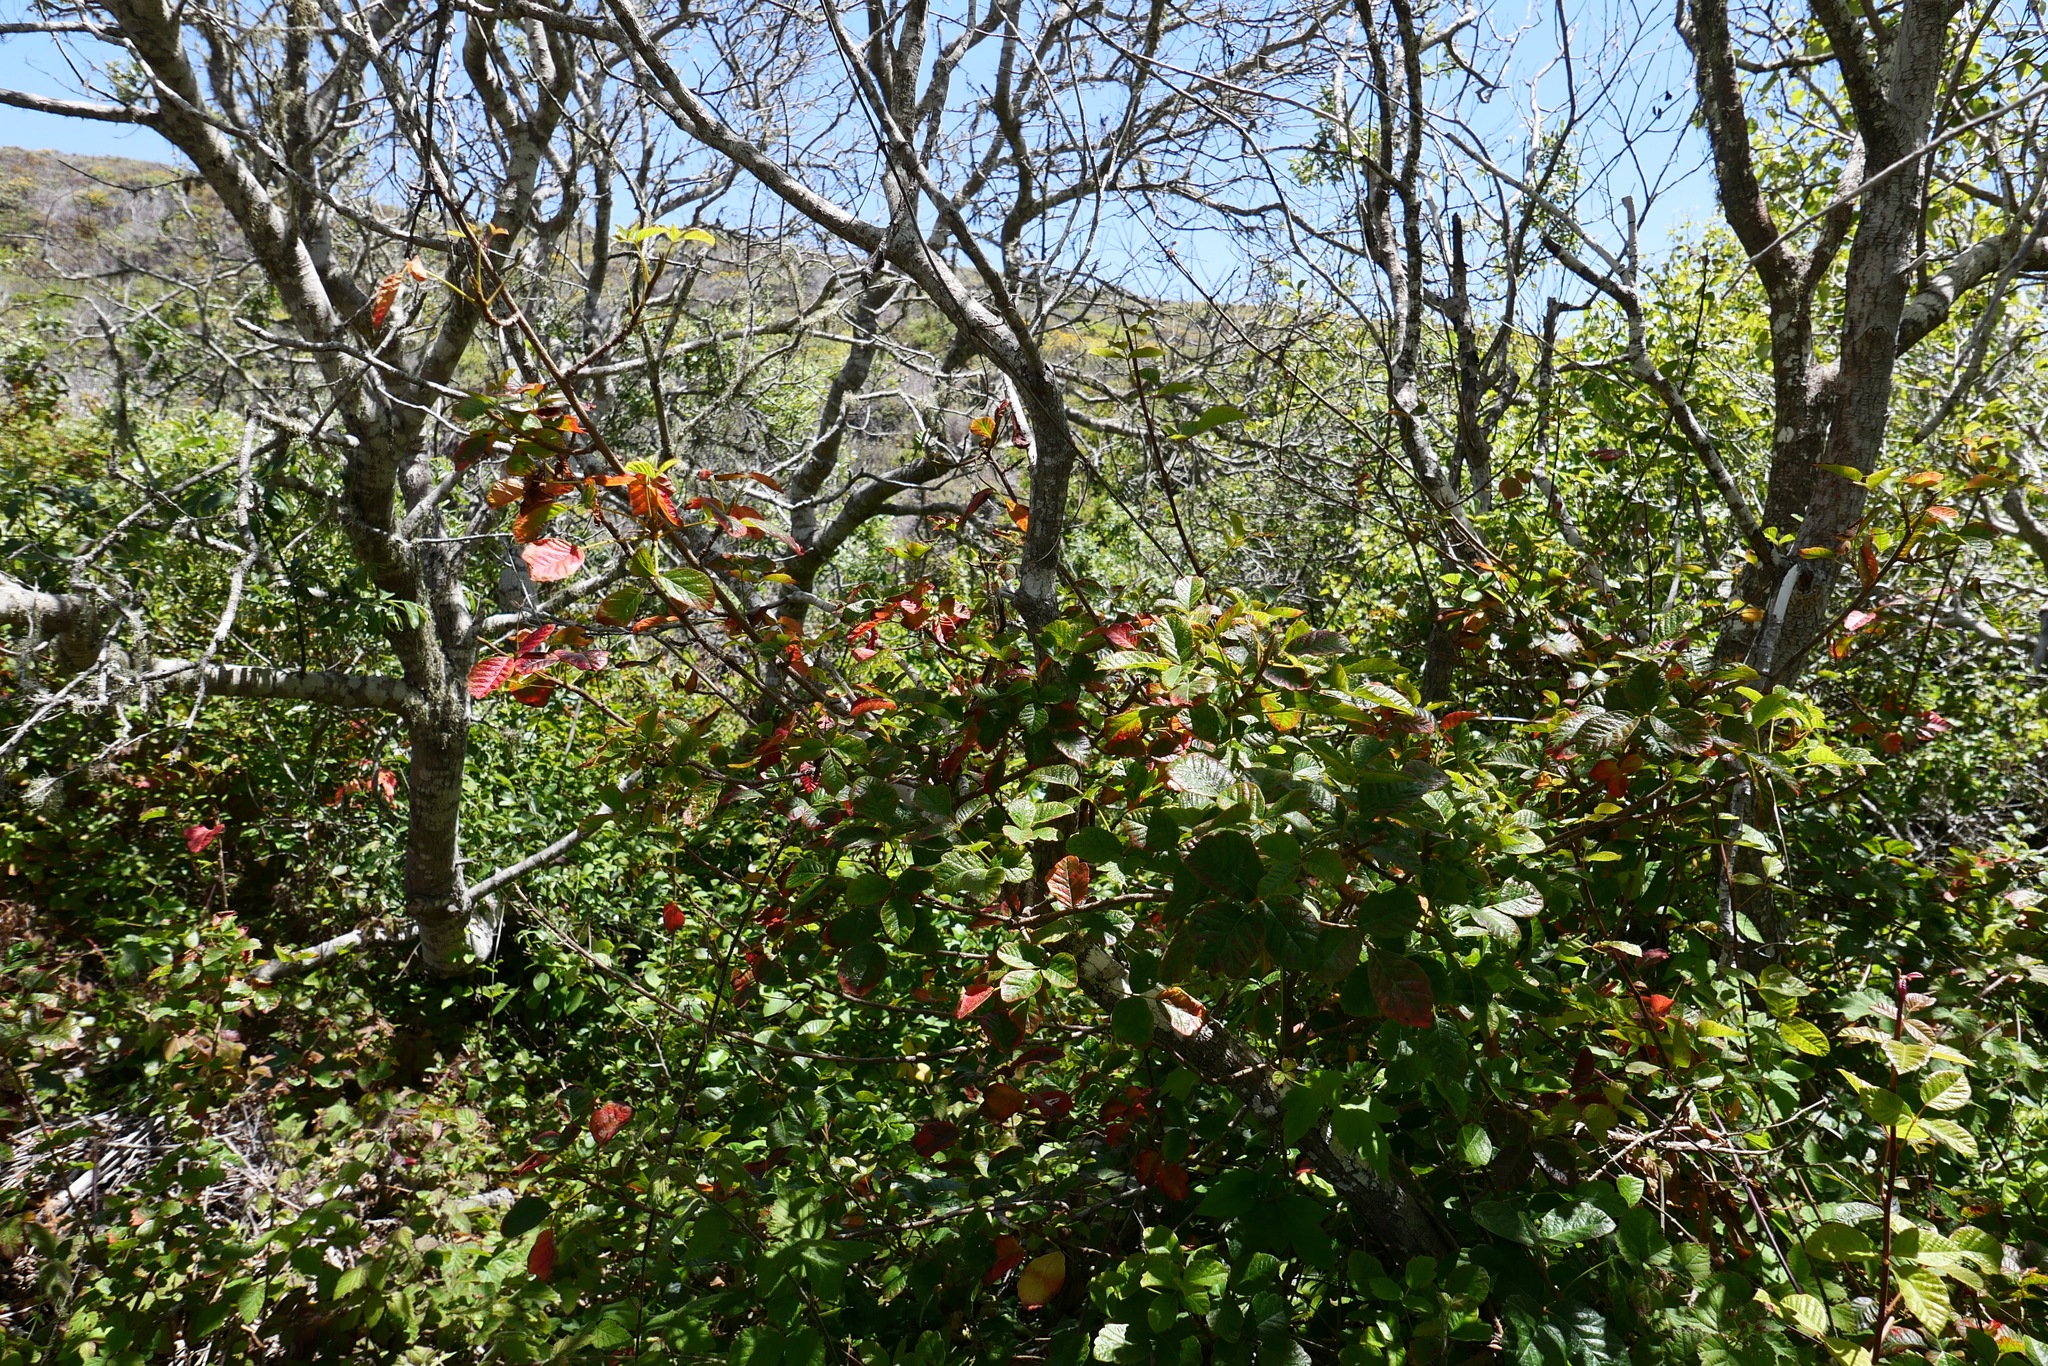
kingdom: Plantae
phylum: Tracheophyta
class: Magnoliopsida
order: Sapindales
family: Anacardiaceae
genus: Toxicodendron
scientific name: Toxicodendron diversilobum
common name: Pacific poison-oak
